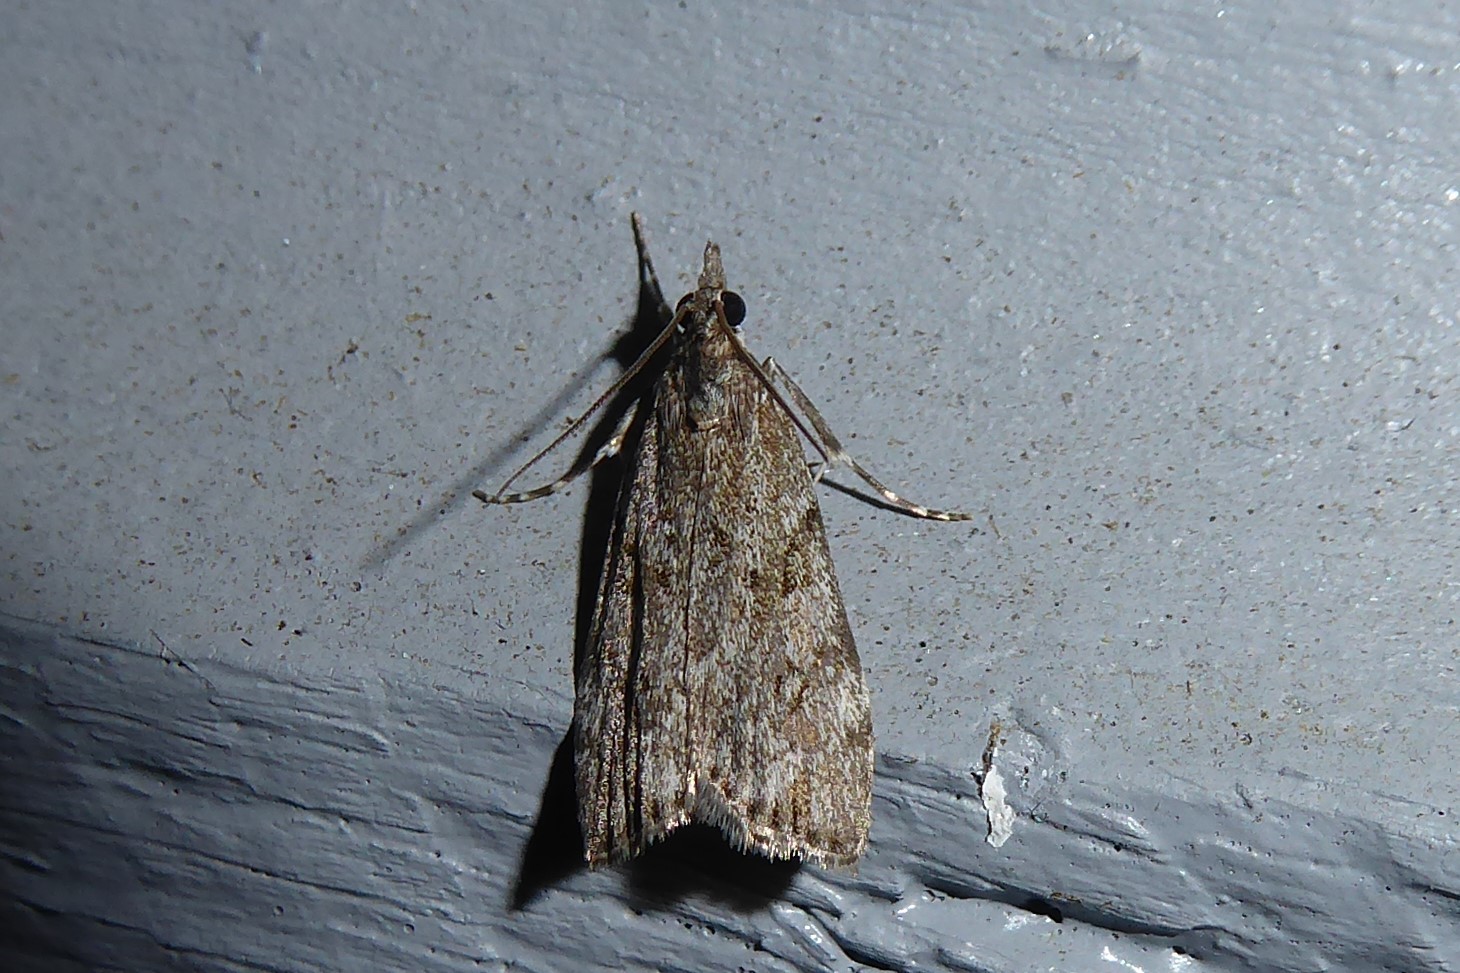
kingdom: Animalia
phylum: Arthropoda
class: Insecta
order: Lepidoptera
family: Crambidae
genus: Eudonia
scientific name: Eudonia cymatias
